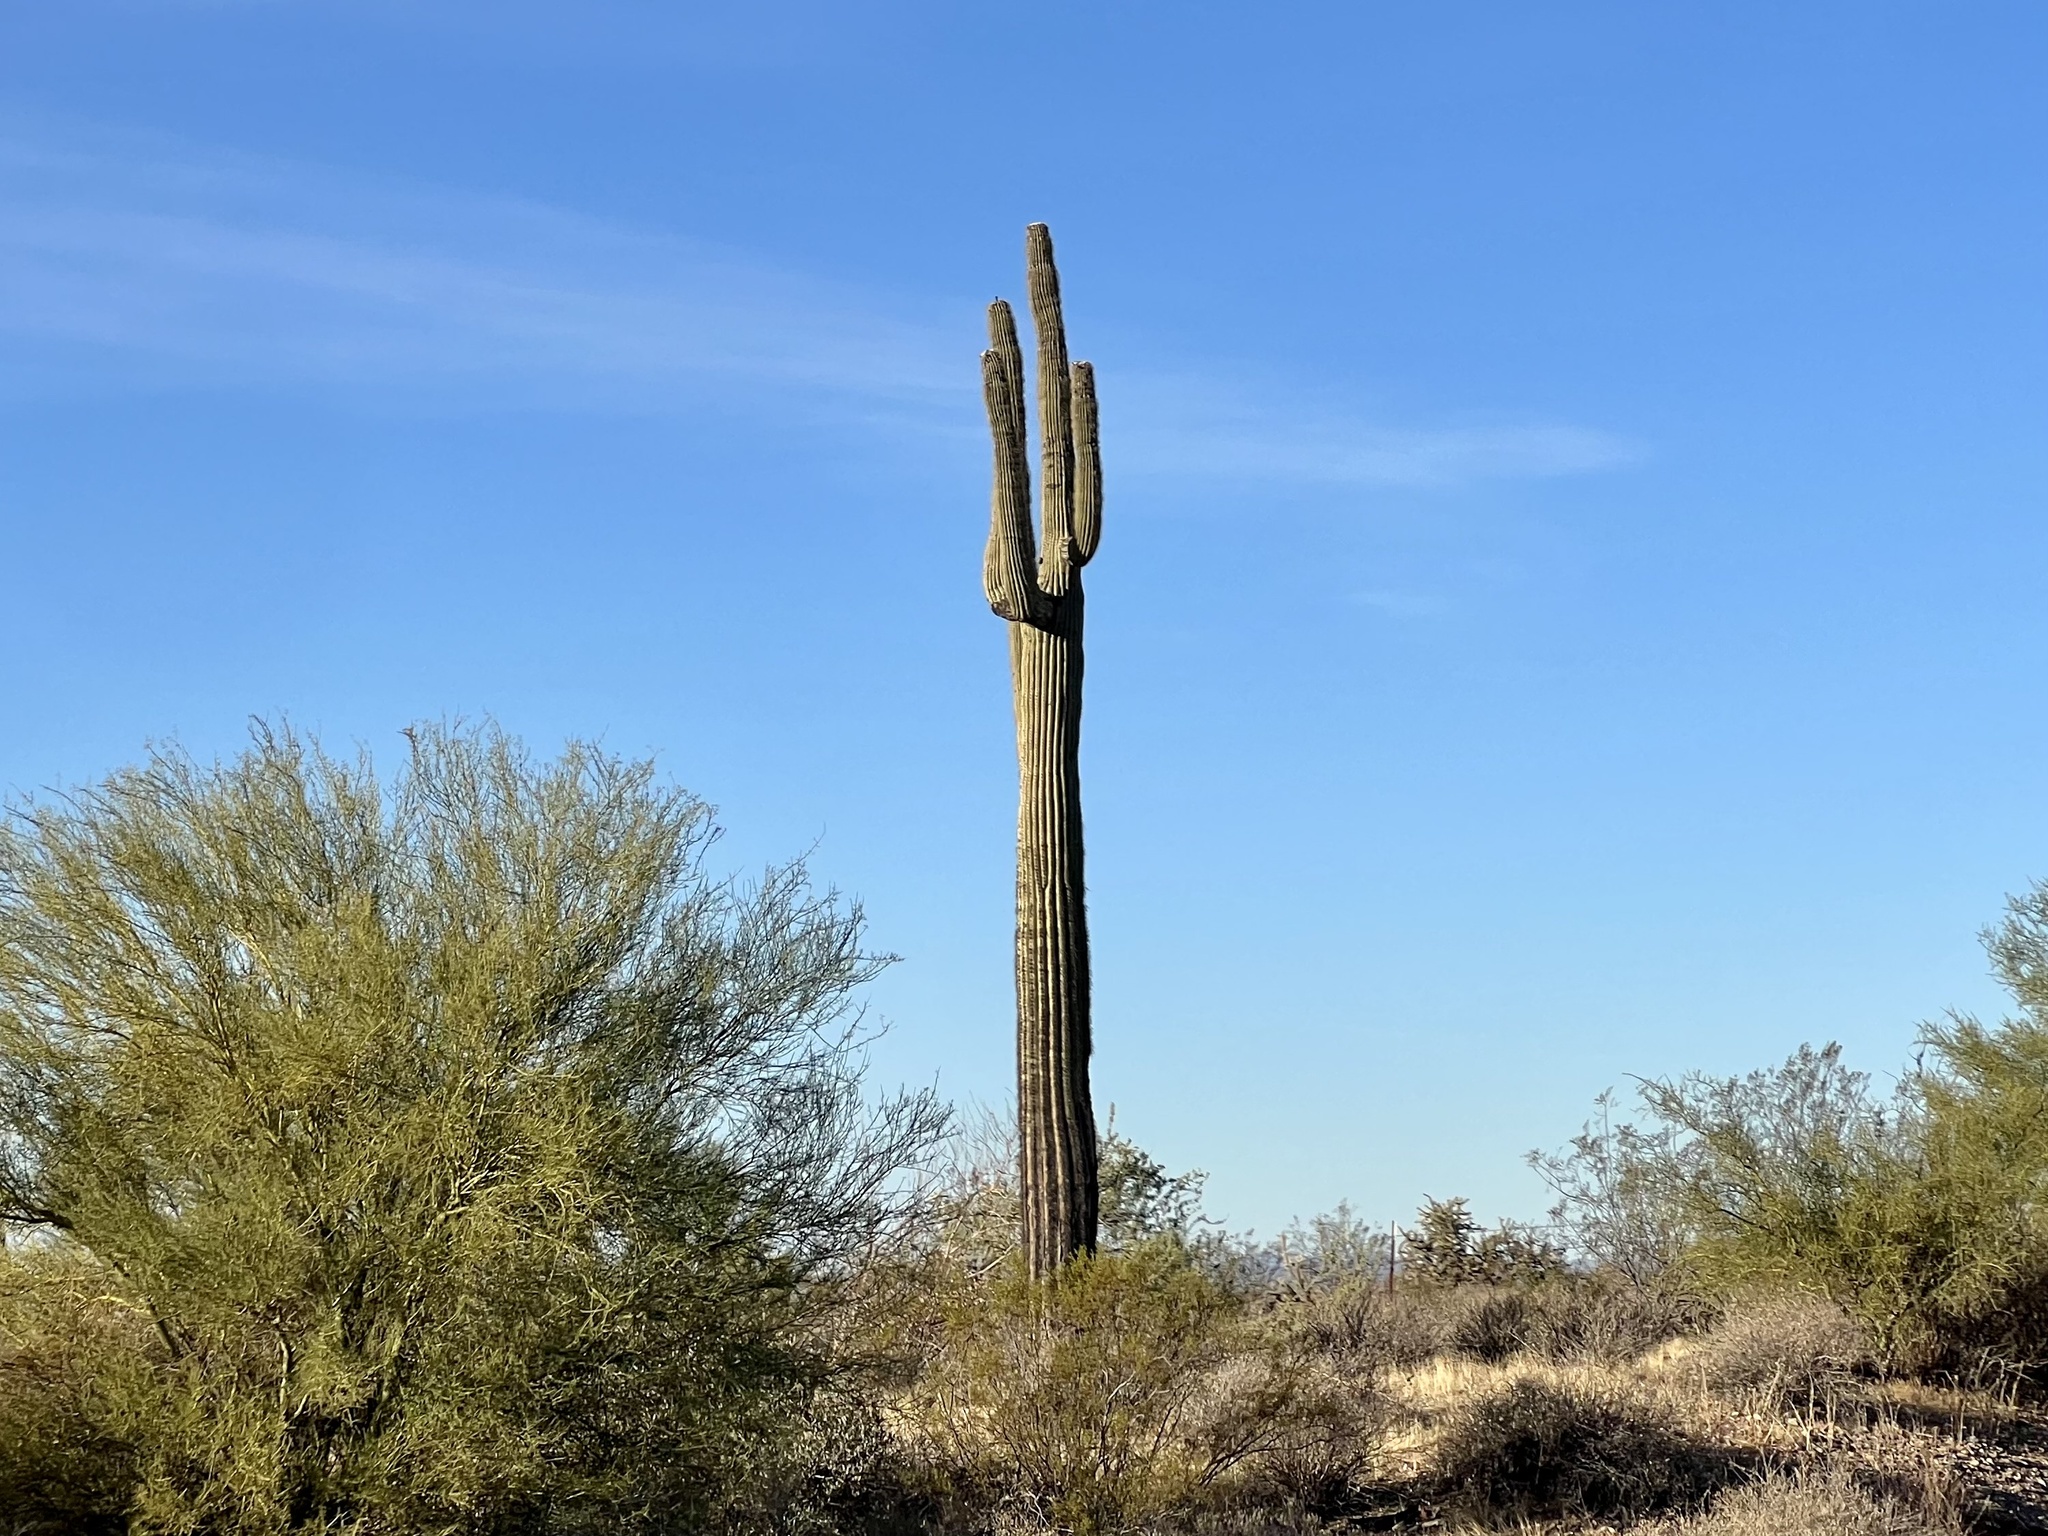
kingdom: Plantae
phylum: Tracheophyta
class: Magnoliopsida
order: Caryophyllales
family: Cactaceae
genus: Carnegiea
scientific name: Carnegiea gigantea
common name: Saguaro
